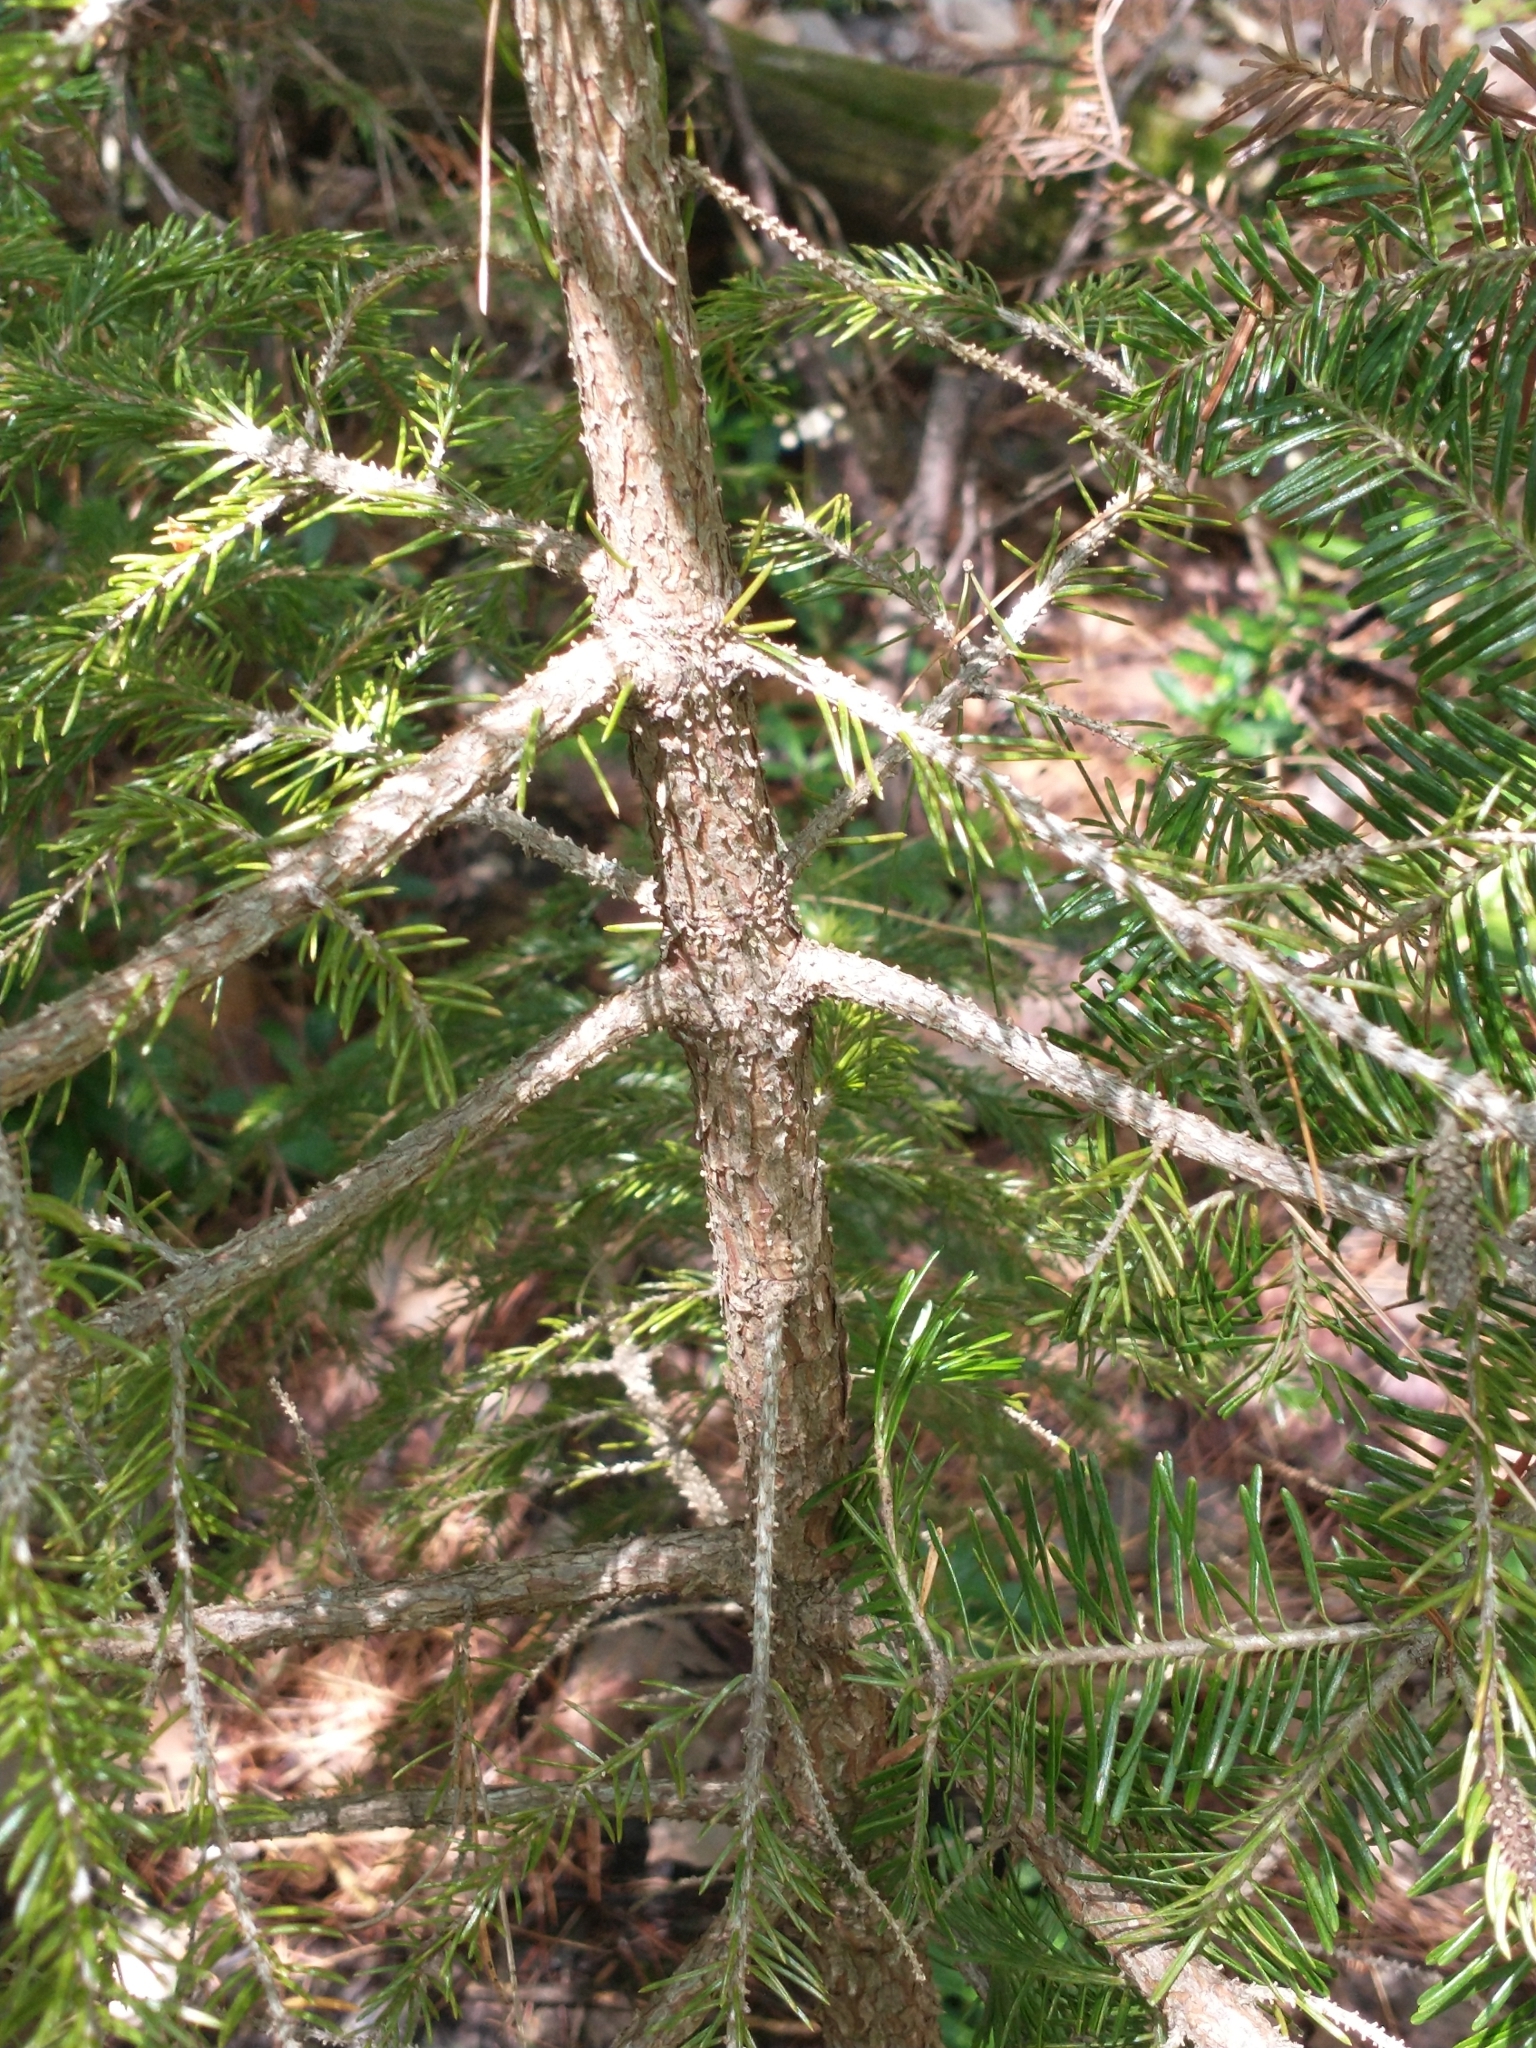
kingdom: Plantae
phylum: Tracheophyta
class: Pinopsida
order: Pinales
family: Pinaceae
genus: Picea
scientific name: Picea rubens
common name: Red spruce
